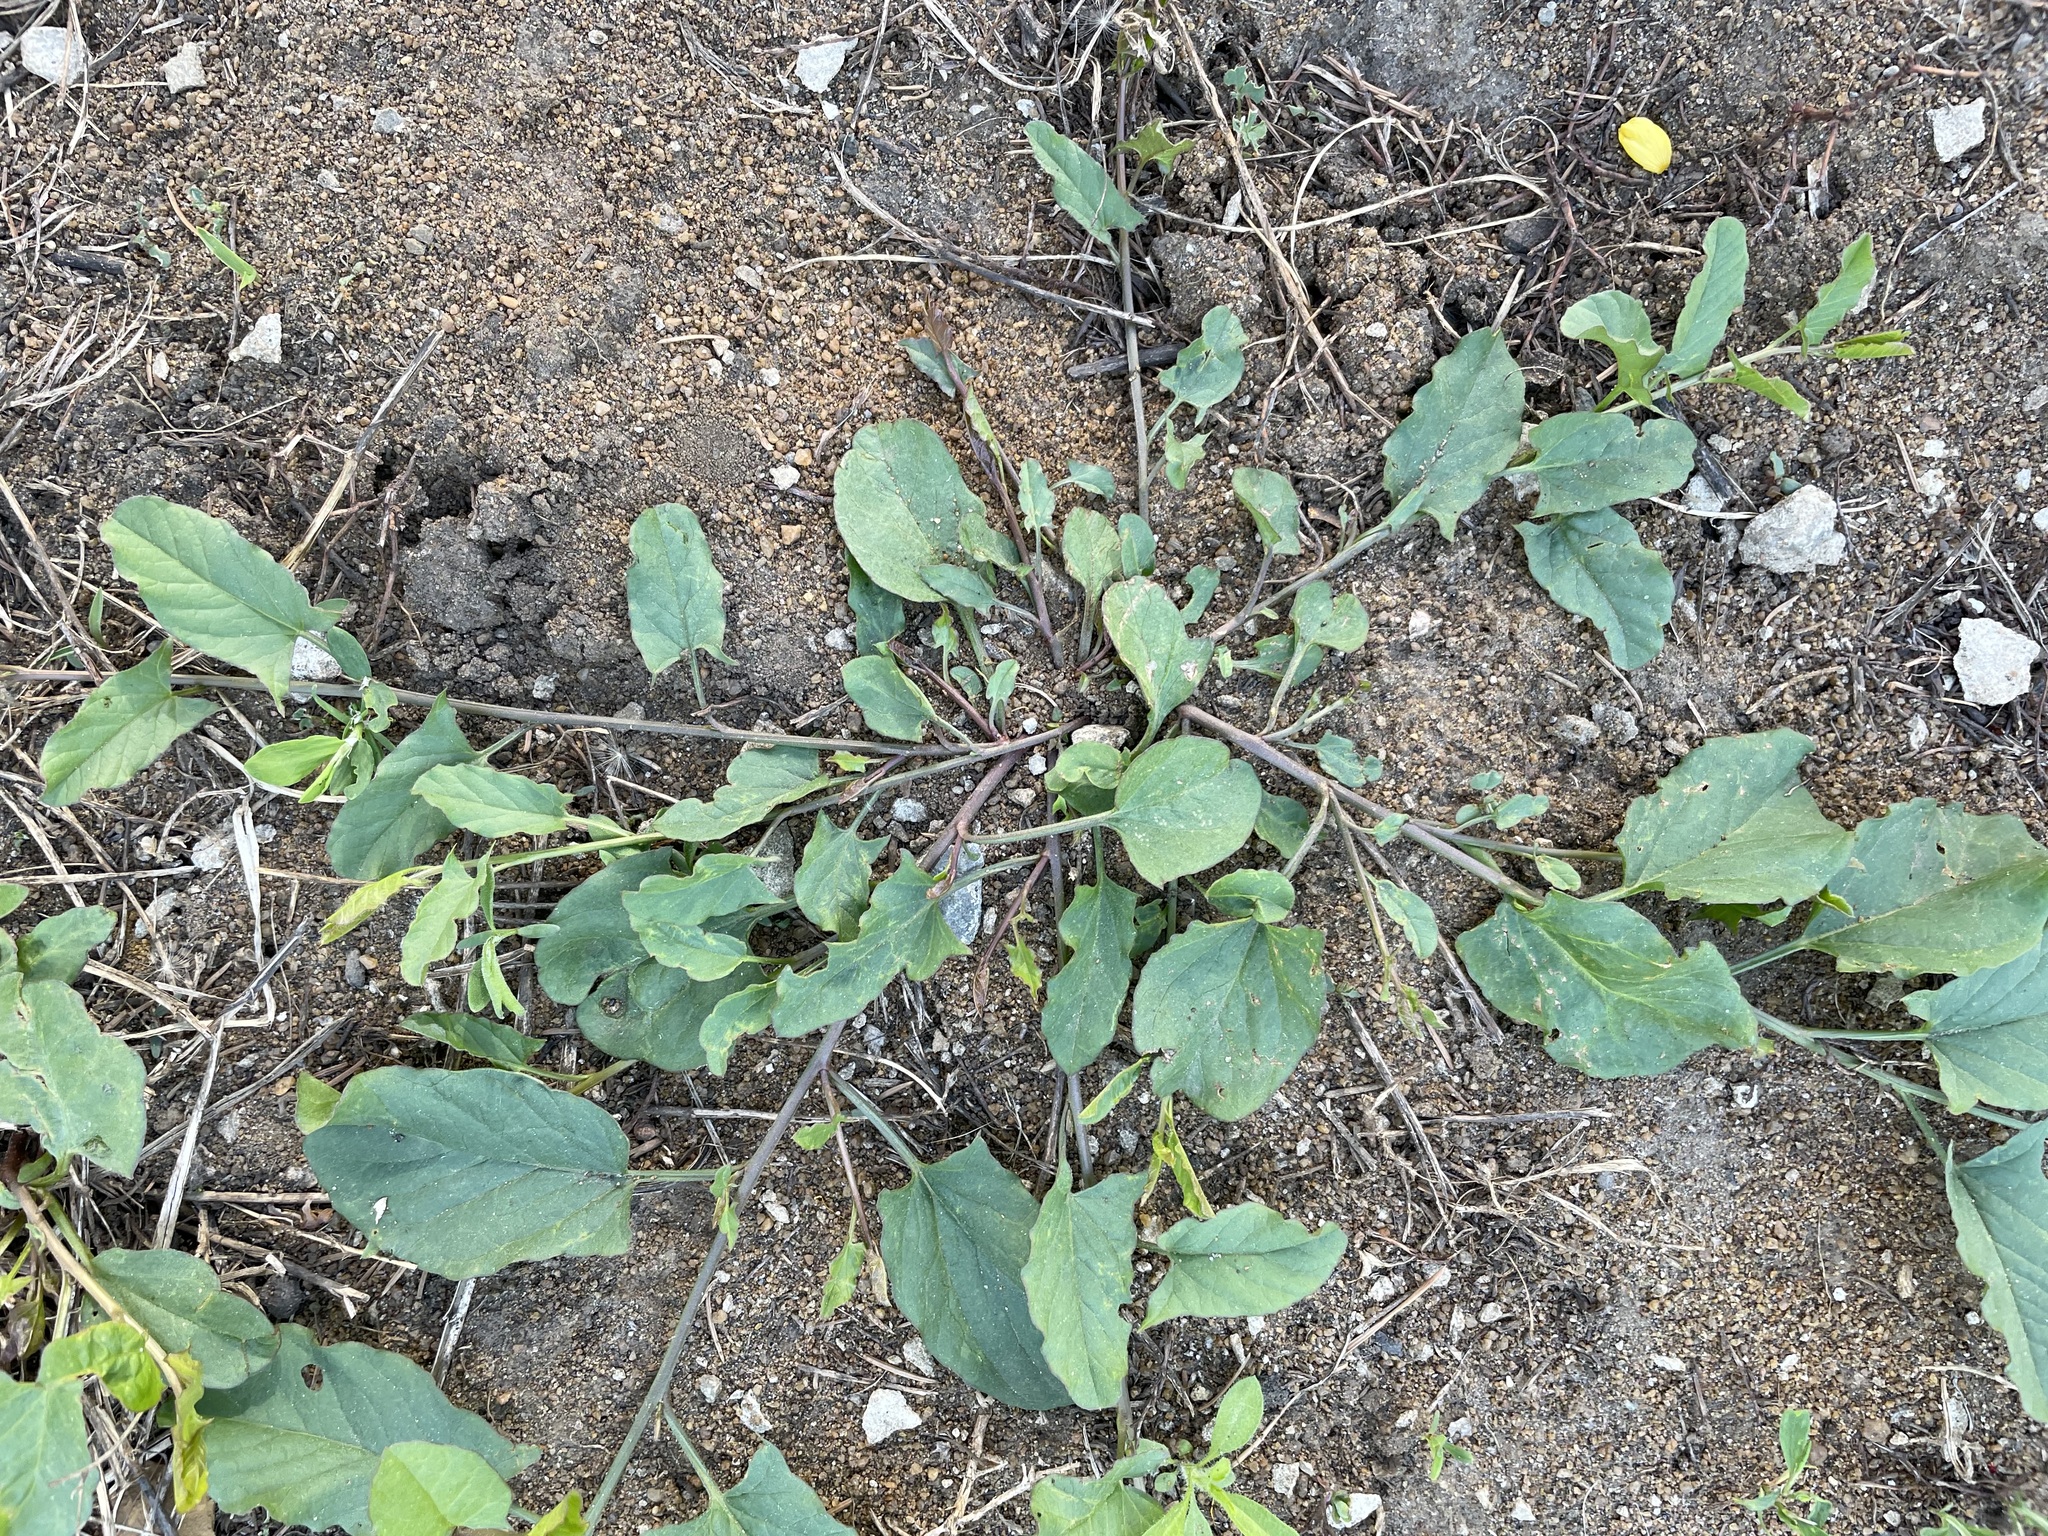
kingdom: Plantae
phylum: Tracheophyta
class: Magnoliopsida
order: Solanales
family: Convolvulaceae
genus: Convolvulus
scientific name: Convolvulus arvensis
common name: Field bindweed
